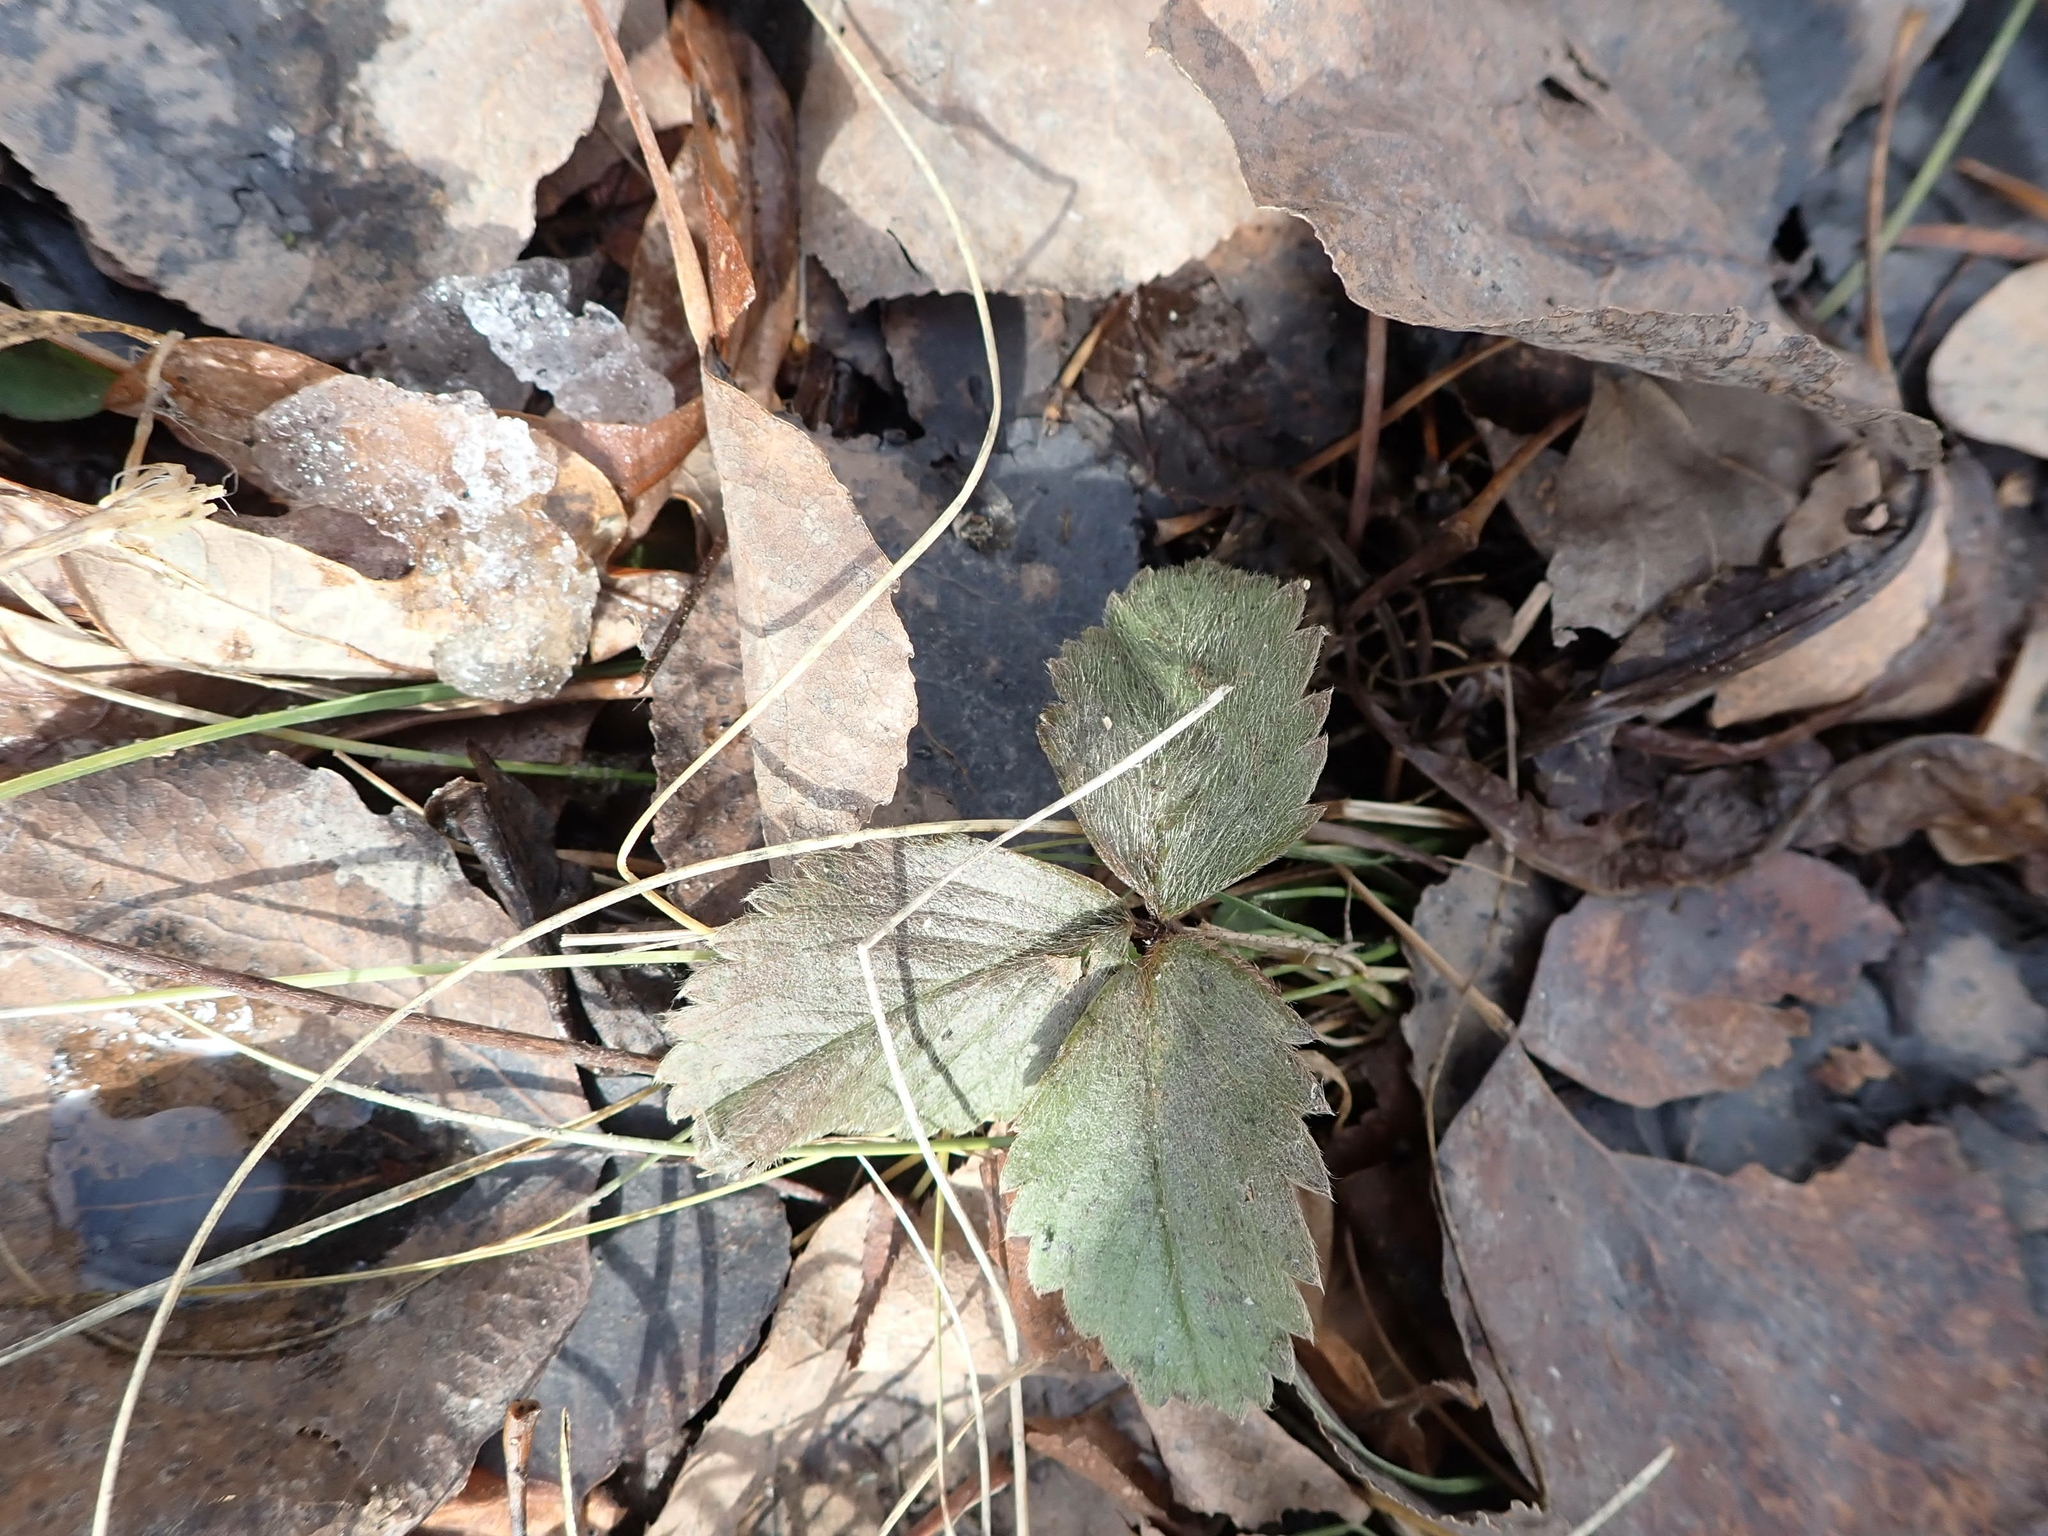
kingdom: Plantae
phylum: Tracheophyta
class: Magnoliopsida
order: Rosales
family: Rosaceae
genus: Fragaria
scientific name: Fragaria virginiana
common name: Thickleaved wild strawberry
